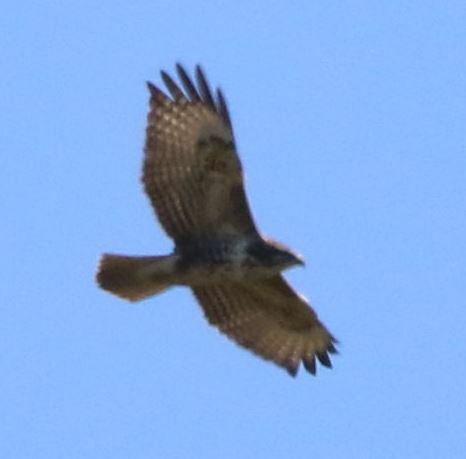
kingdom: Animalia
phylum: Chordata
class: Aves
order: Accipitriformes
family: Accipitridae
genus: Buteo
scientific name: Buteo buteo
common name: Common buzzard
